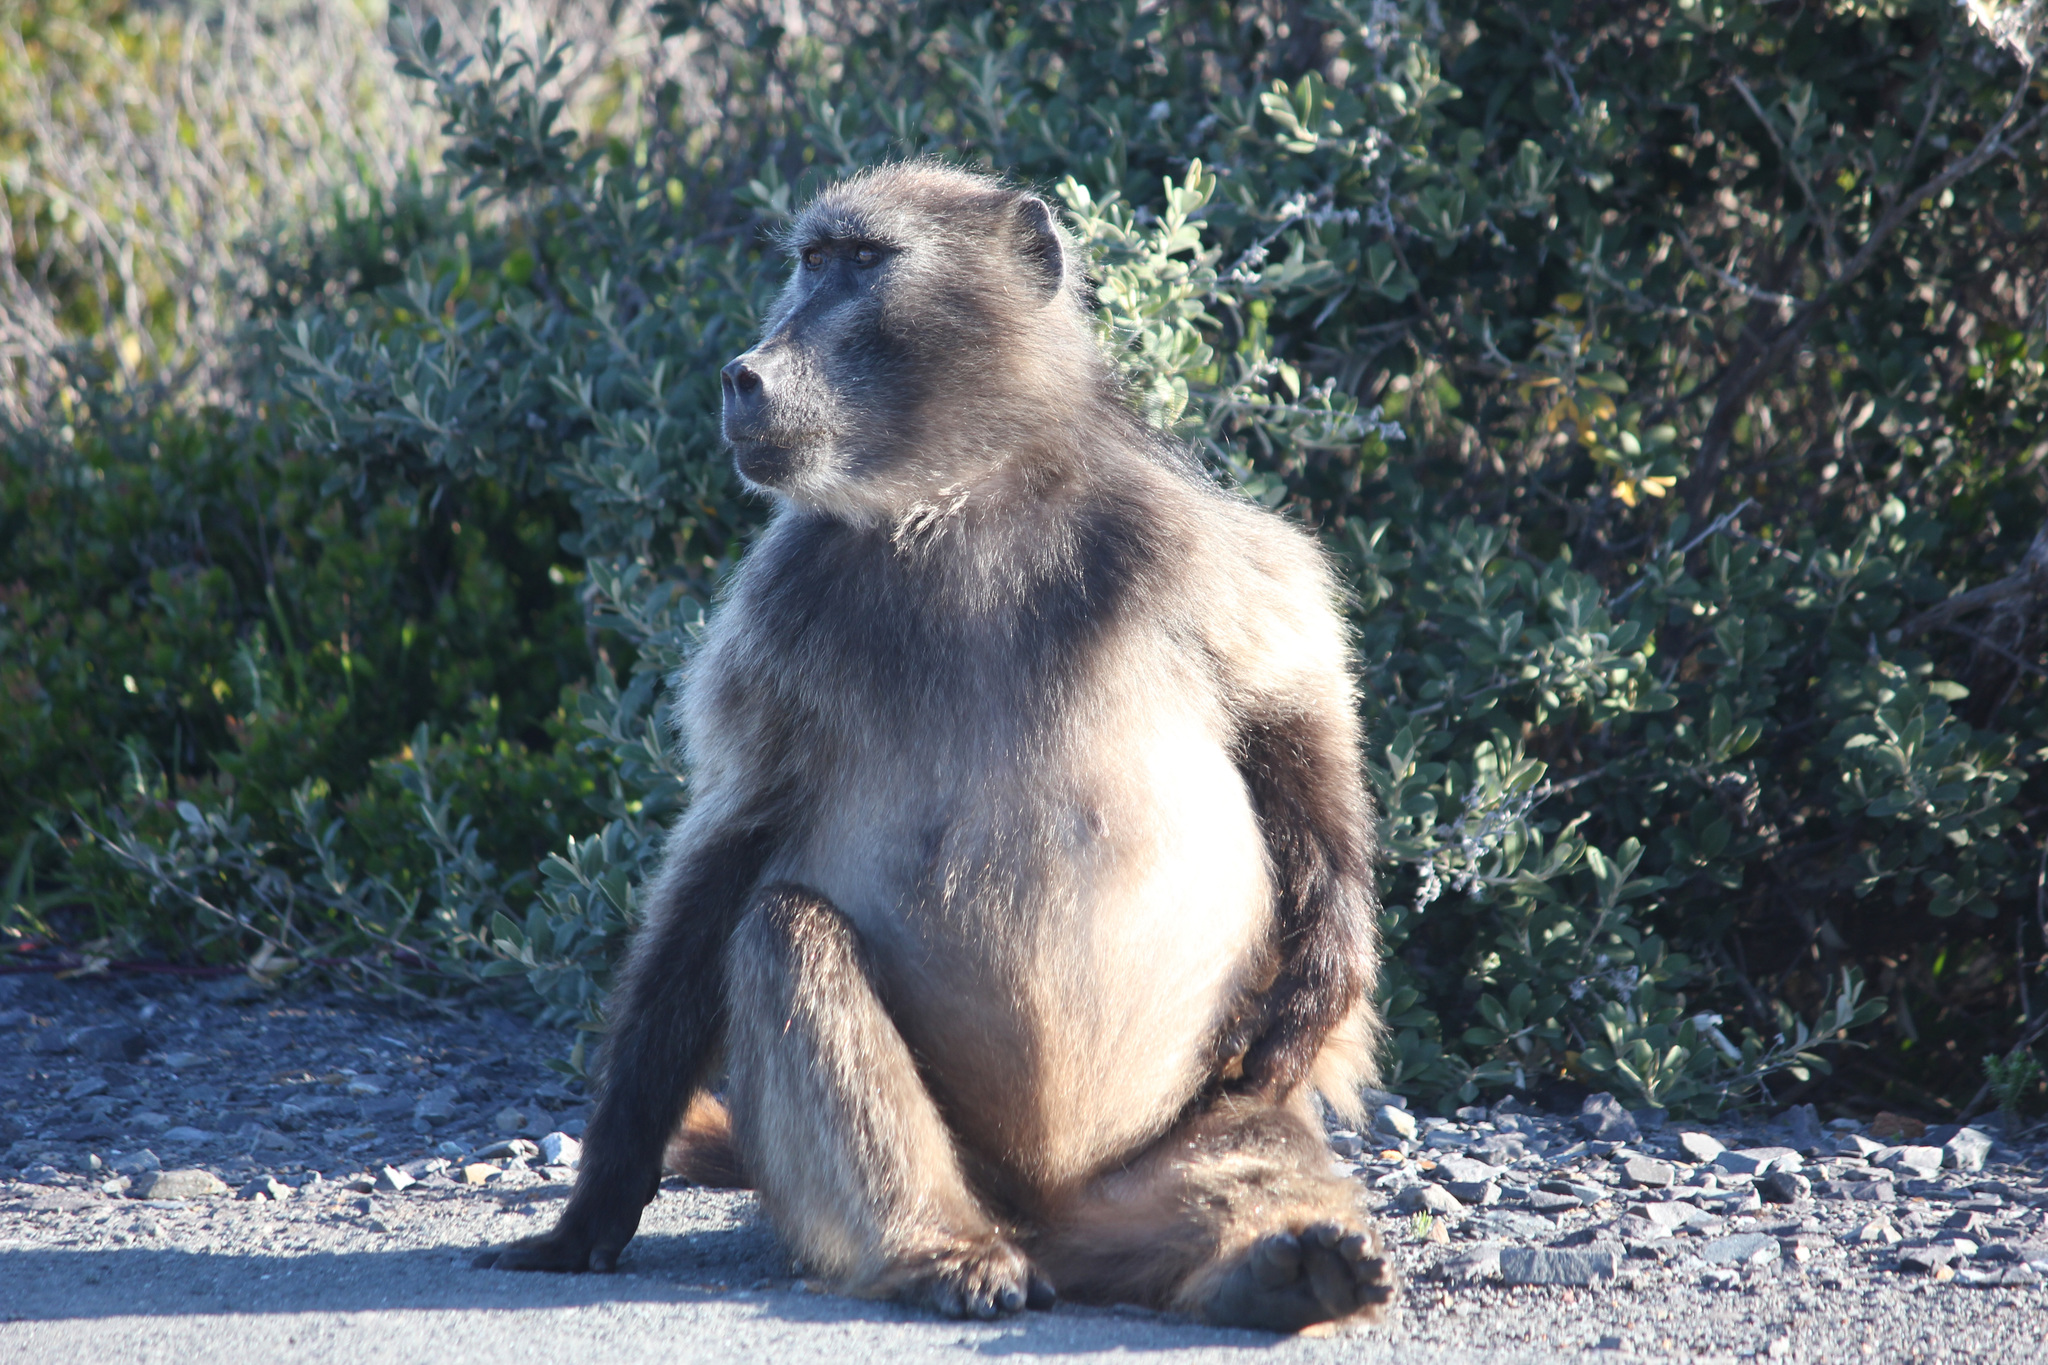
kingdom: Animalia
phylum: Chordata
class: Mammalia
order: Primates
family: Cercopithecidae
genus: Papio
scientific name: Papio ursinus
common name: Chacma baboon
